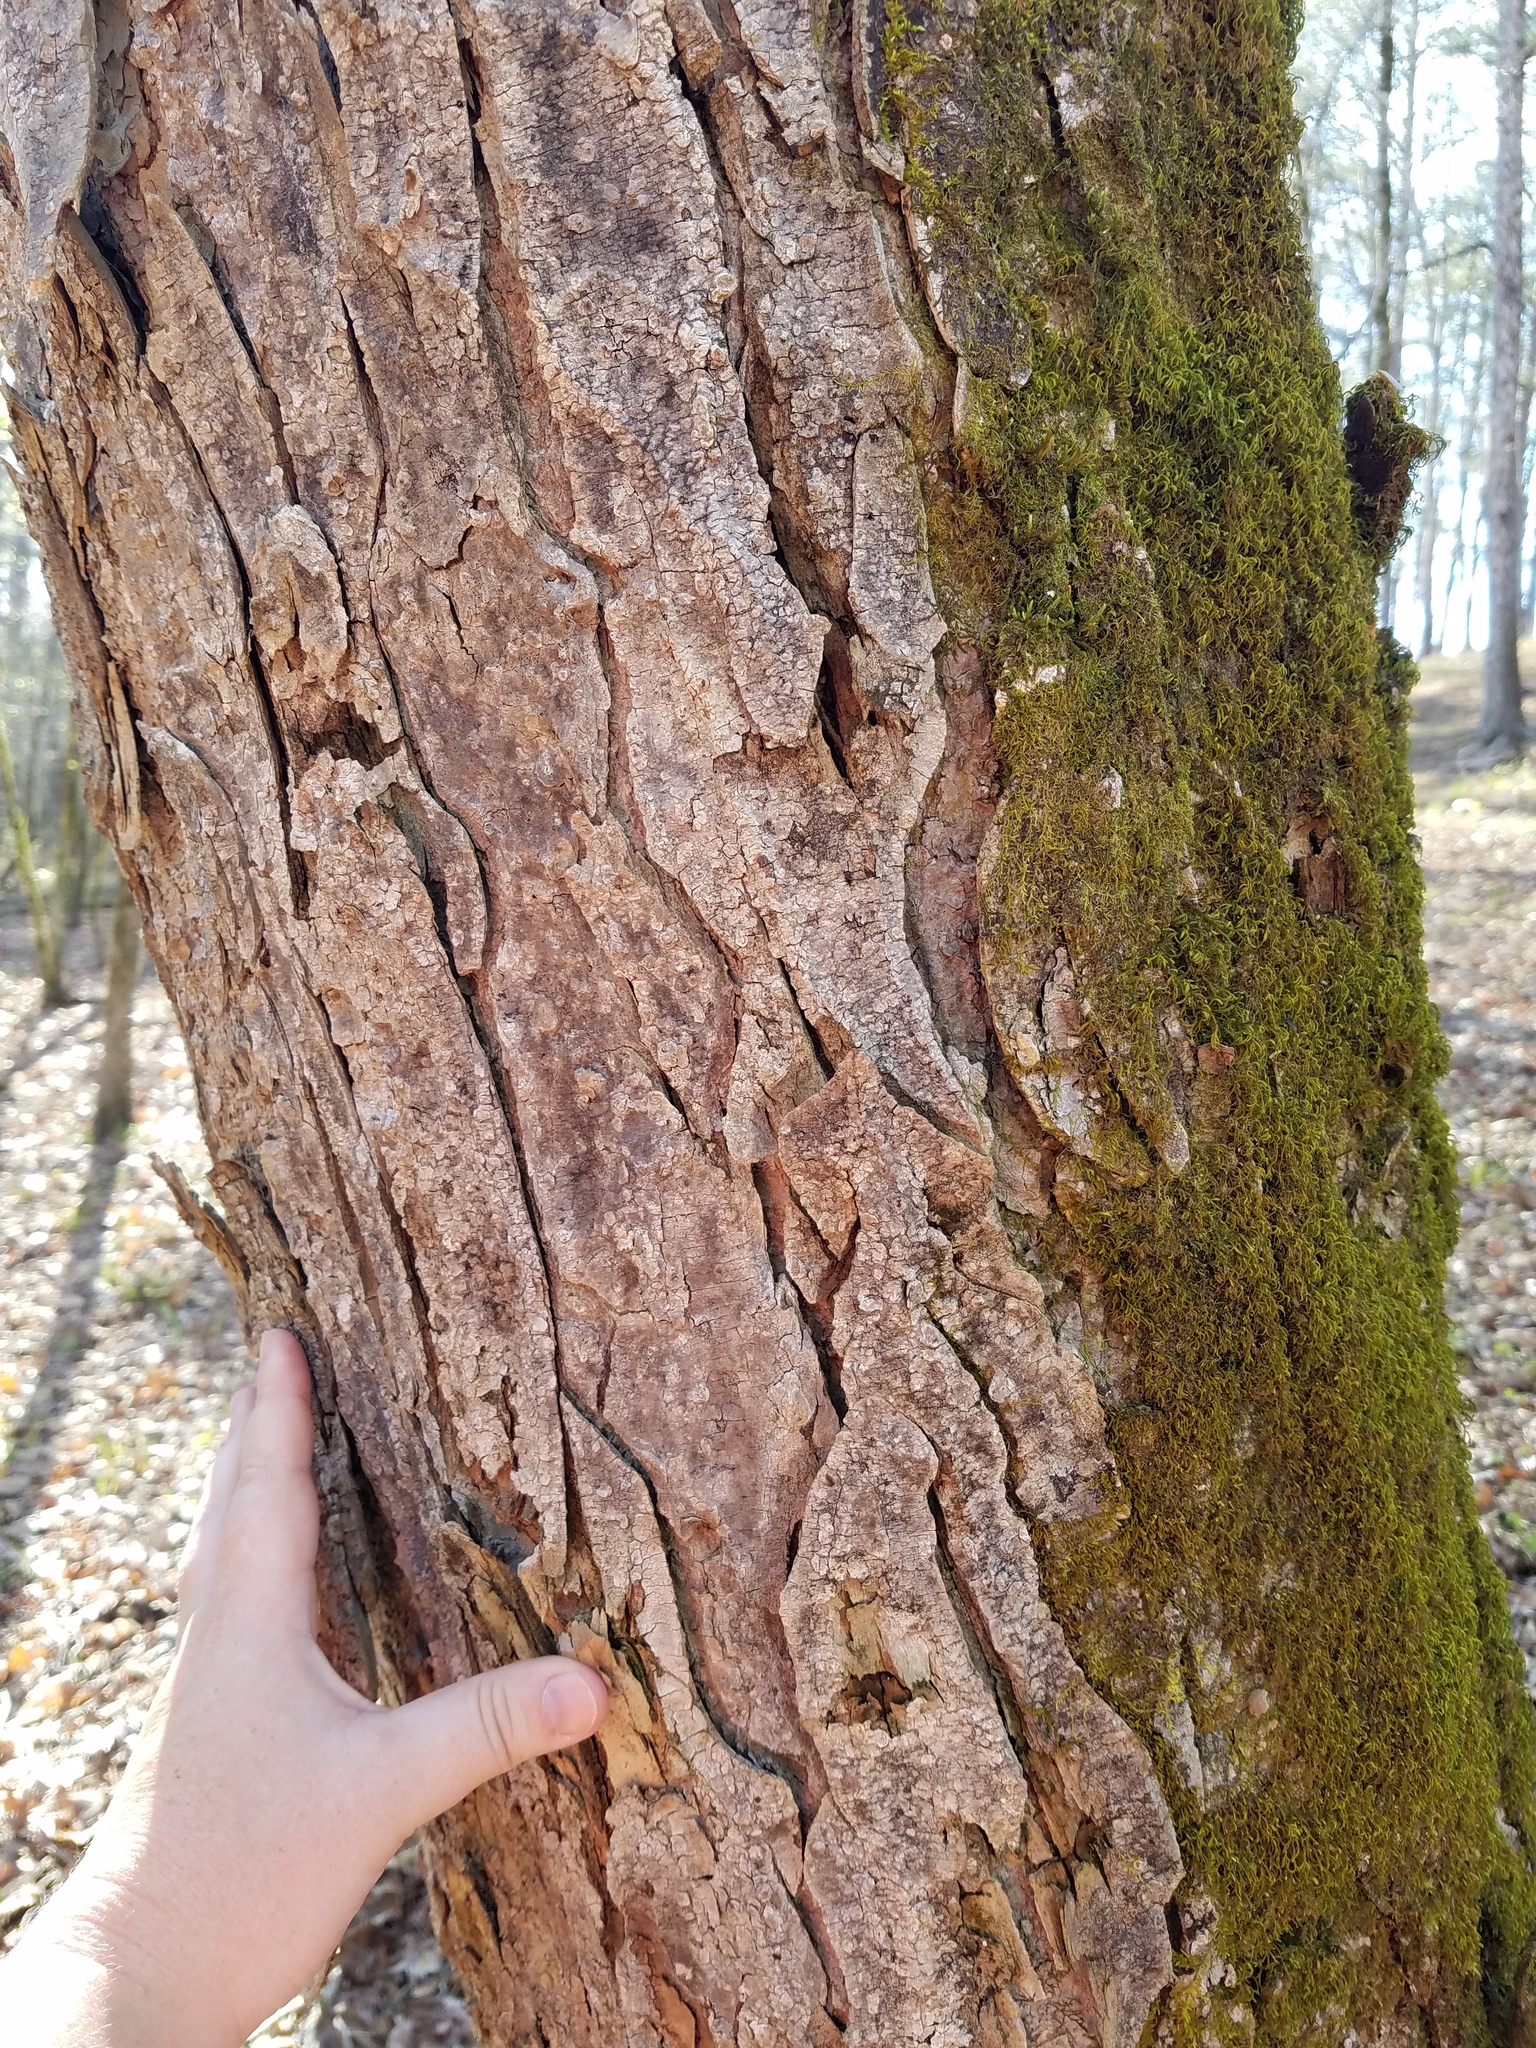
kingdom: Plantae
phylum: Tracheophyta
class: Magnoliopsida
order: Sapindales
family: Sapindaceae
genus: Aesculus
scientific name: Aesculus flava
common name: Yellow buckeye
